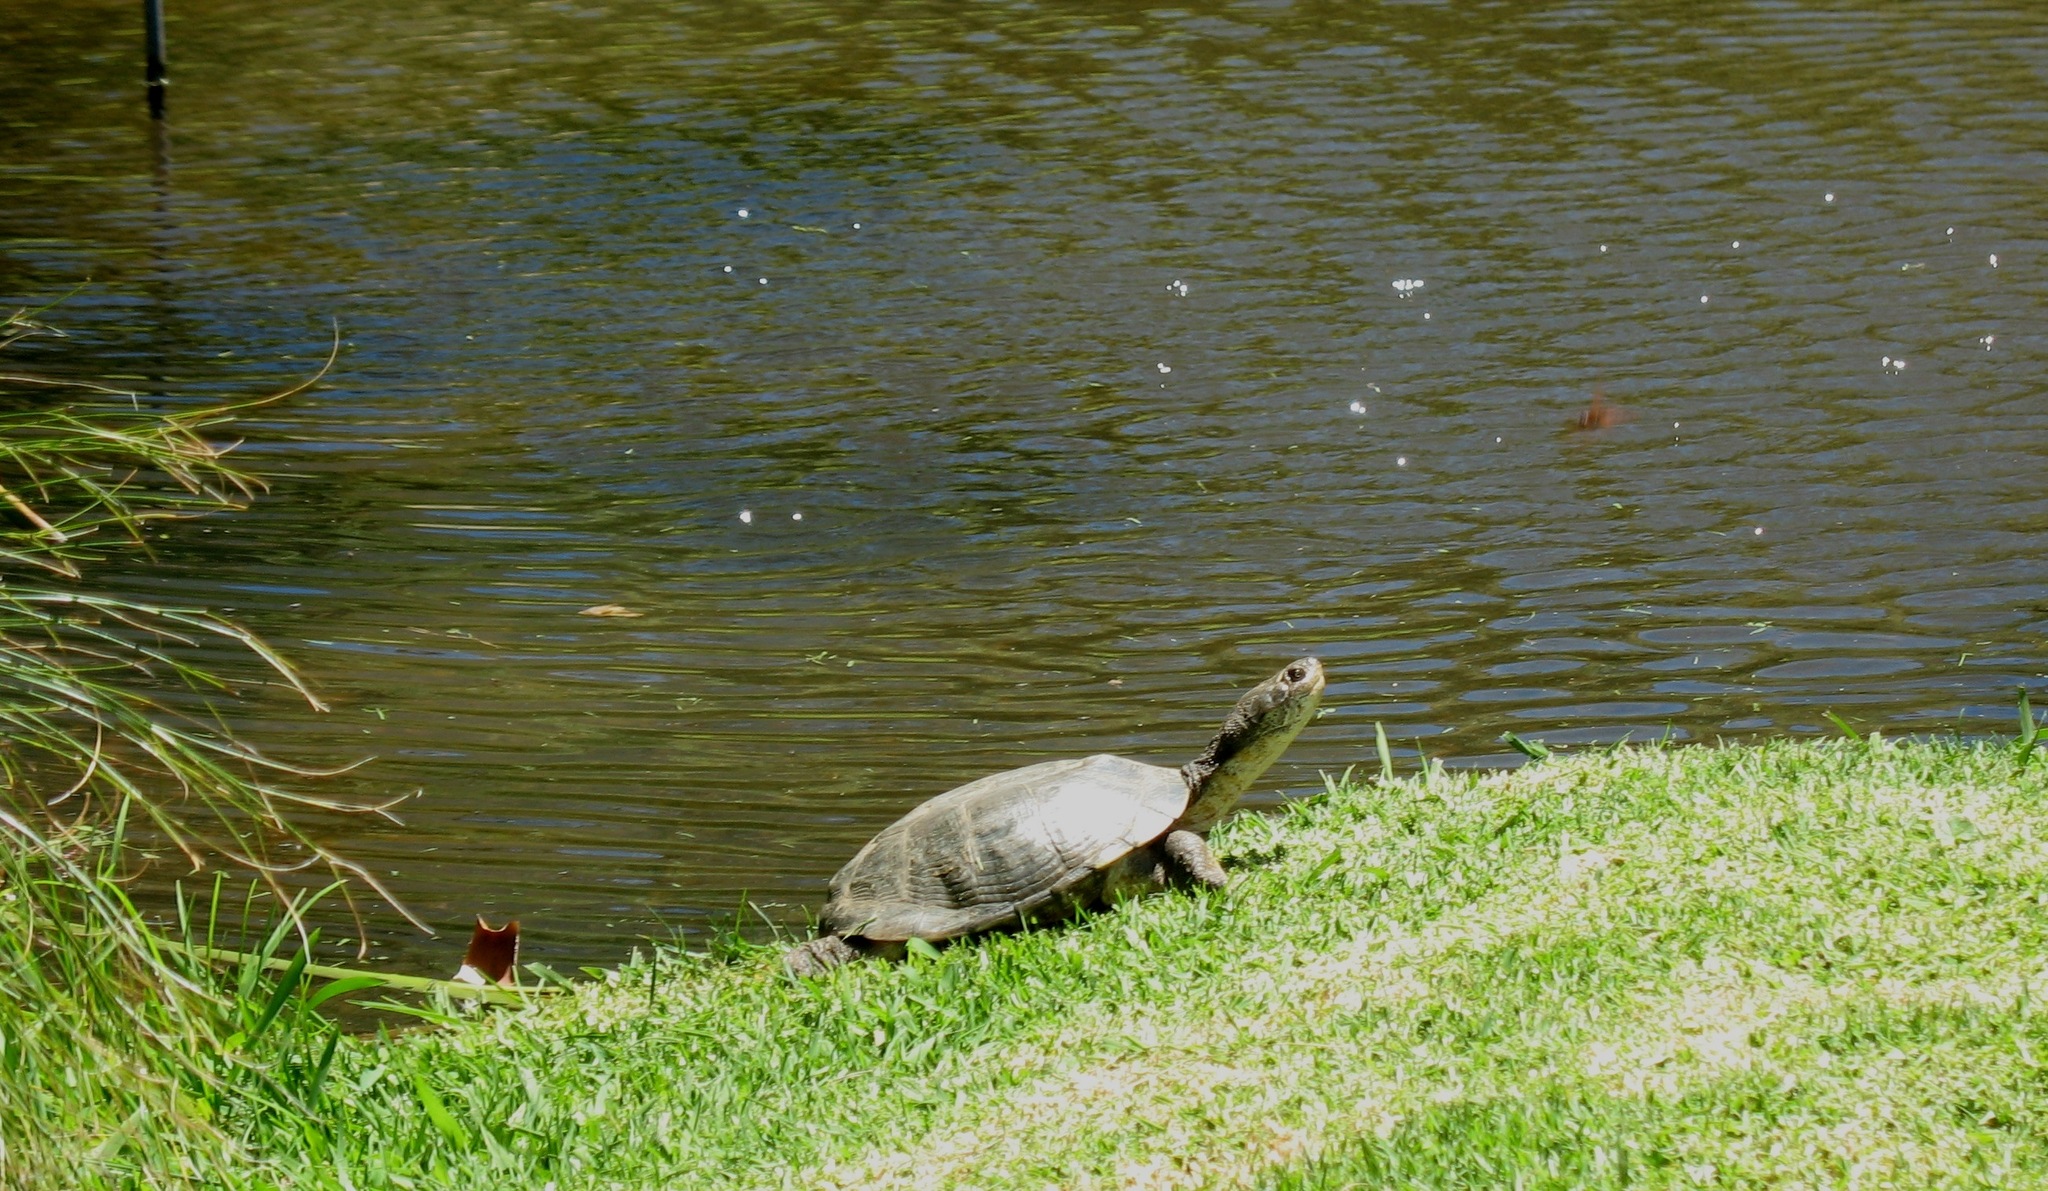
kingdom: Animalia
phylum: Chordata
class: Testudines
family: Pelomedusidae
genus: Pelomedusa
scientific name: Pelomedusa galeata
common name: South african helmeted terrapin
